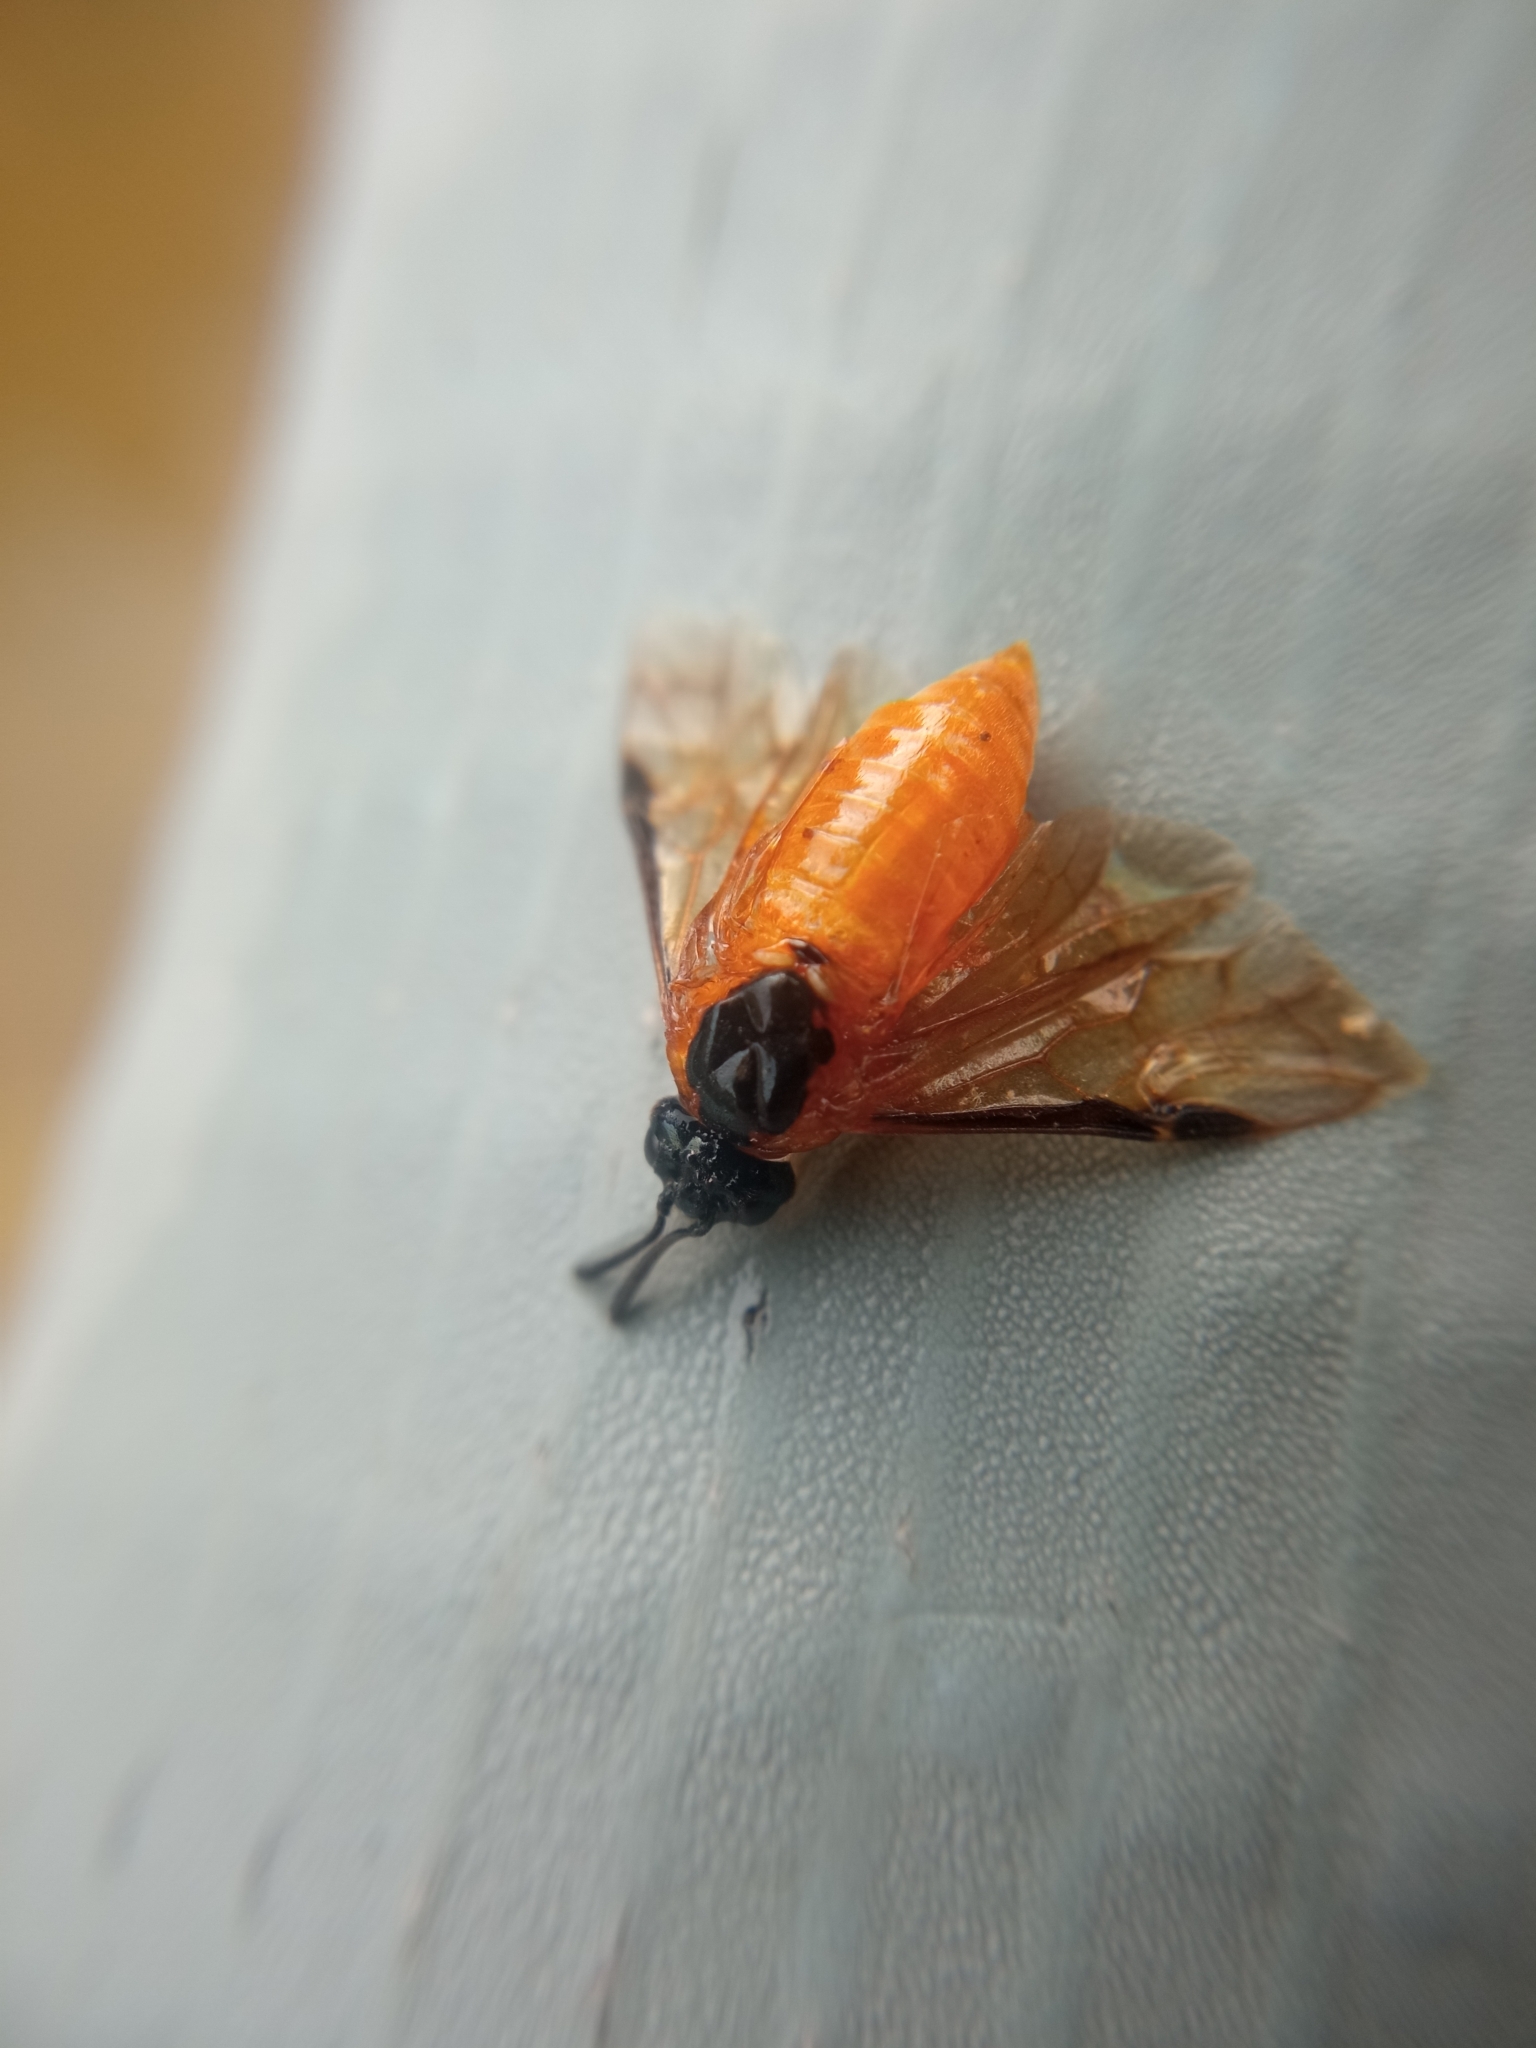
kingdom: Animalia
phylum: Arthropoda
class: Insecta
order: Hymenoptera
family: Argidae
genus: Arge
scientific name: Arge ochropus
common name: Argid sawfly
